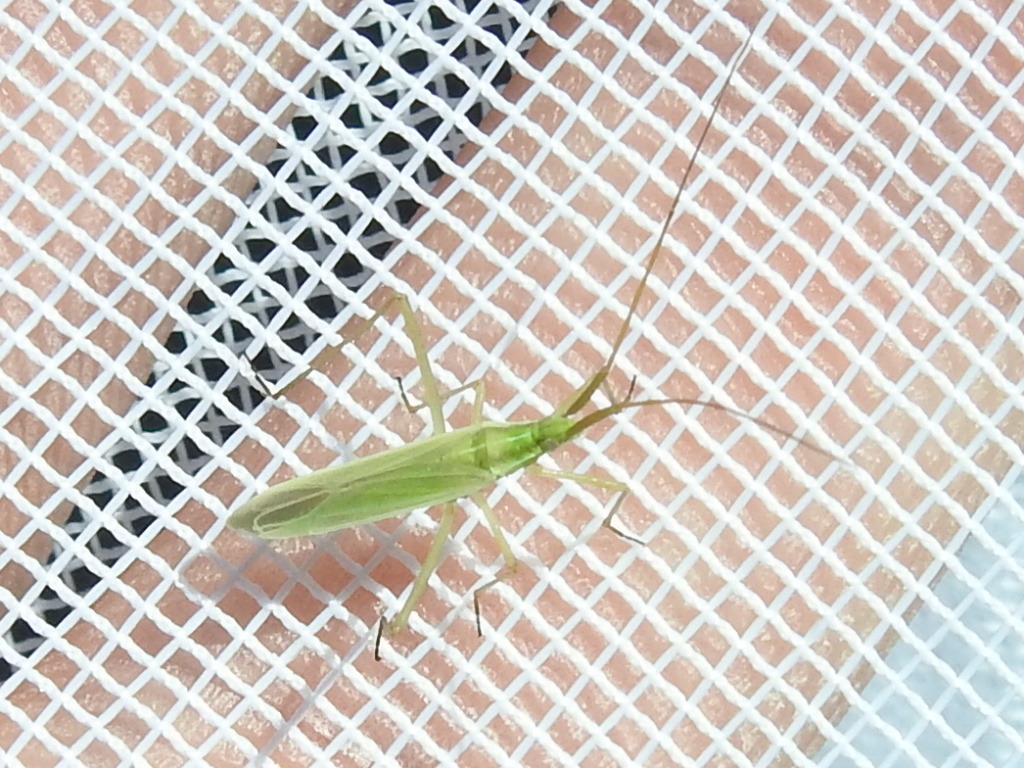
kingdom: Animalia
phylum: Arthropoda
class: Insecta
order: Hemiptera
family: Miridae
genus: Megaloceroea
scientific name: Megaloceroea recticornis
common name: Plant bug
